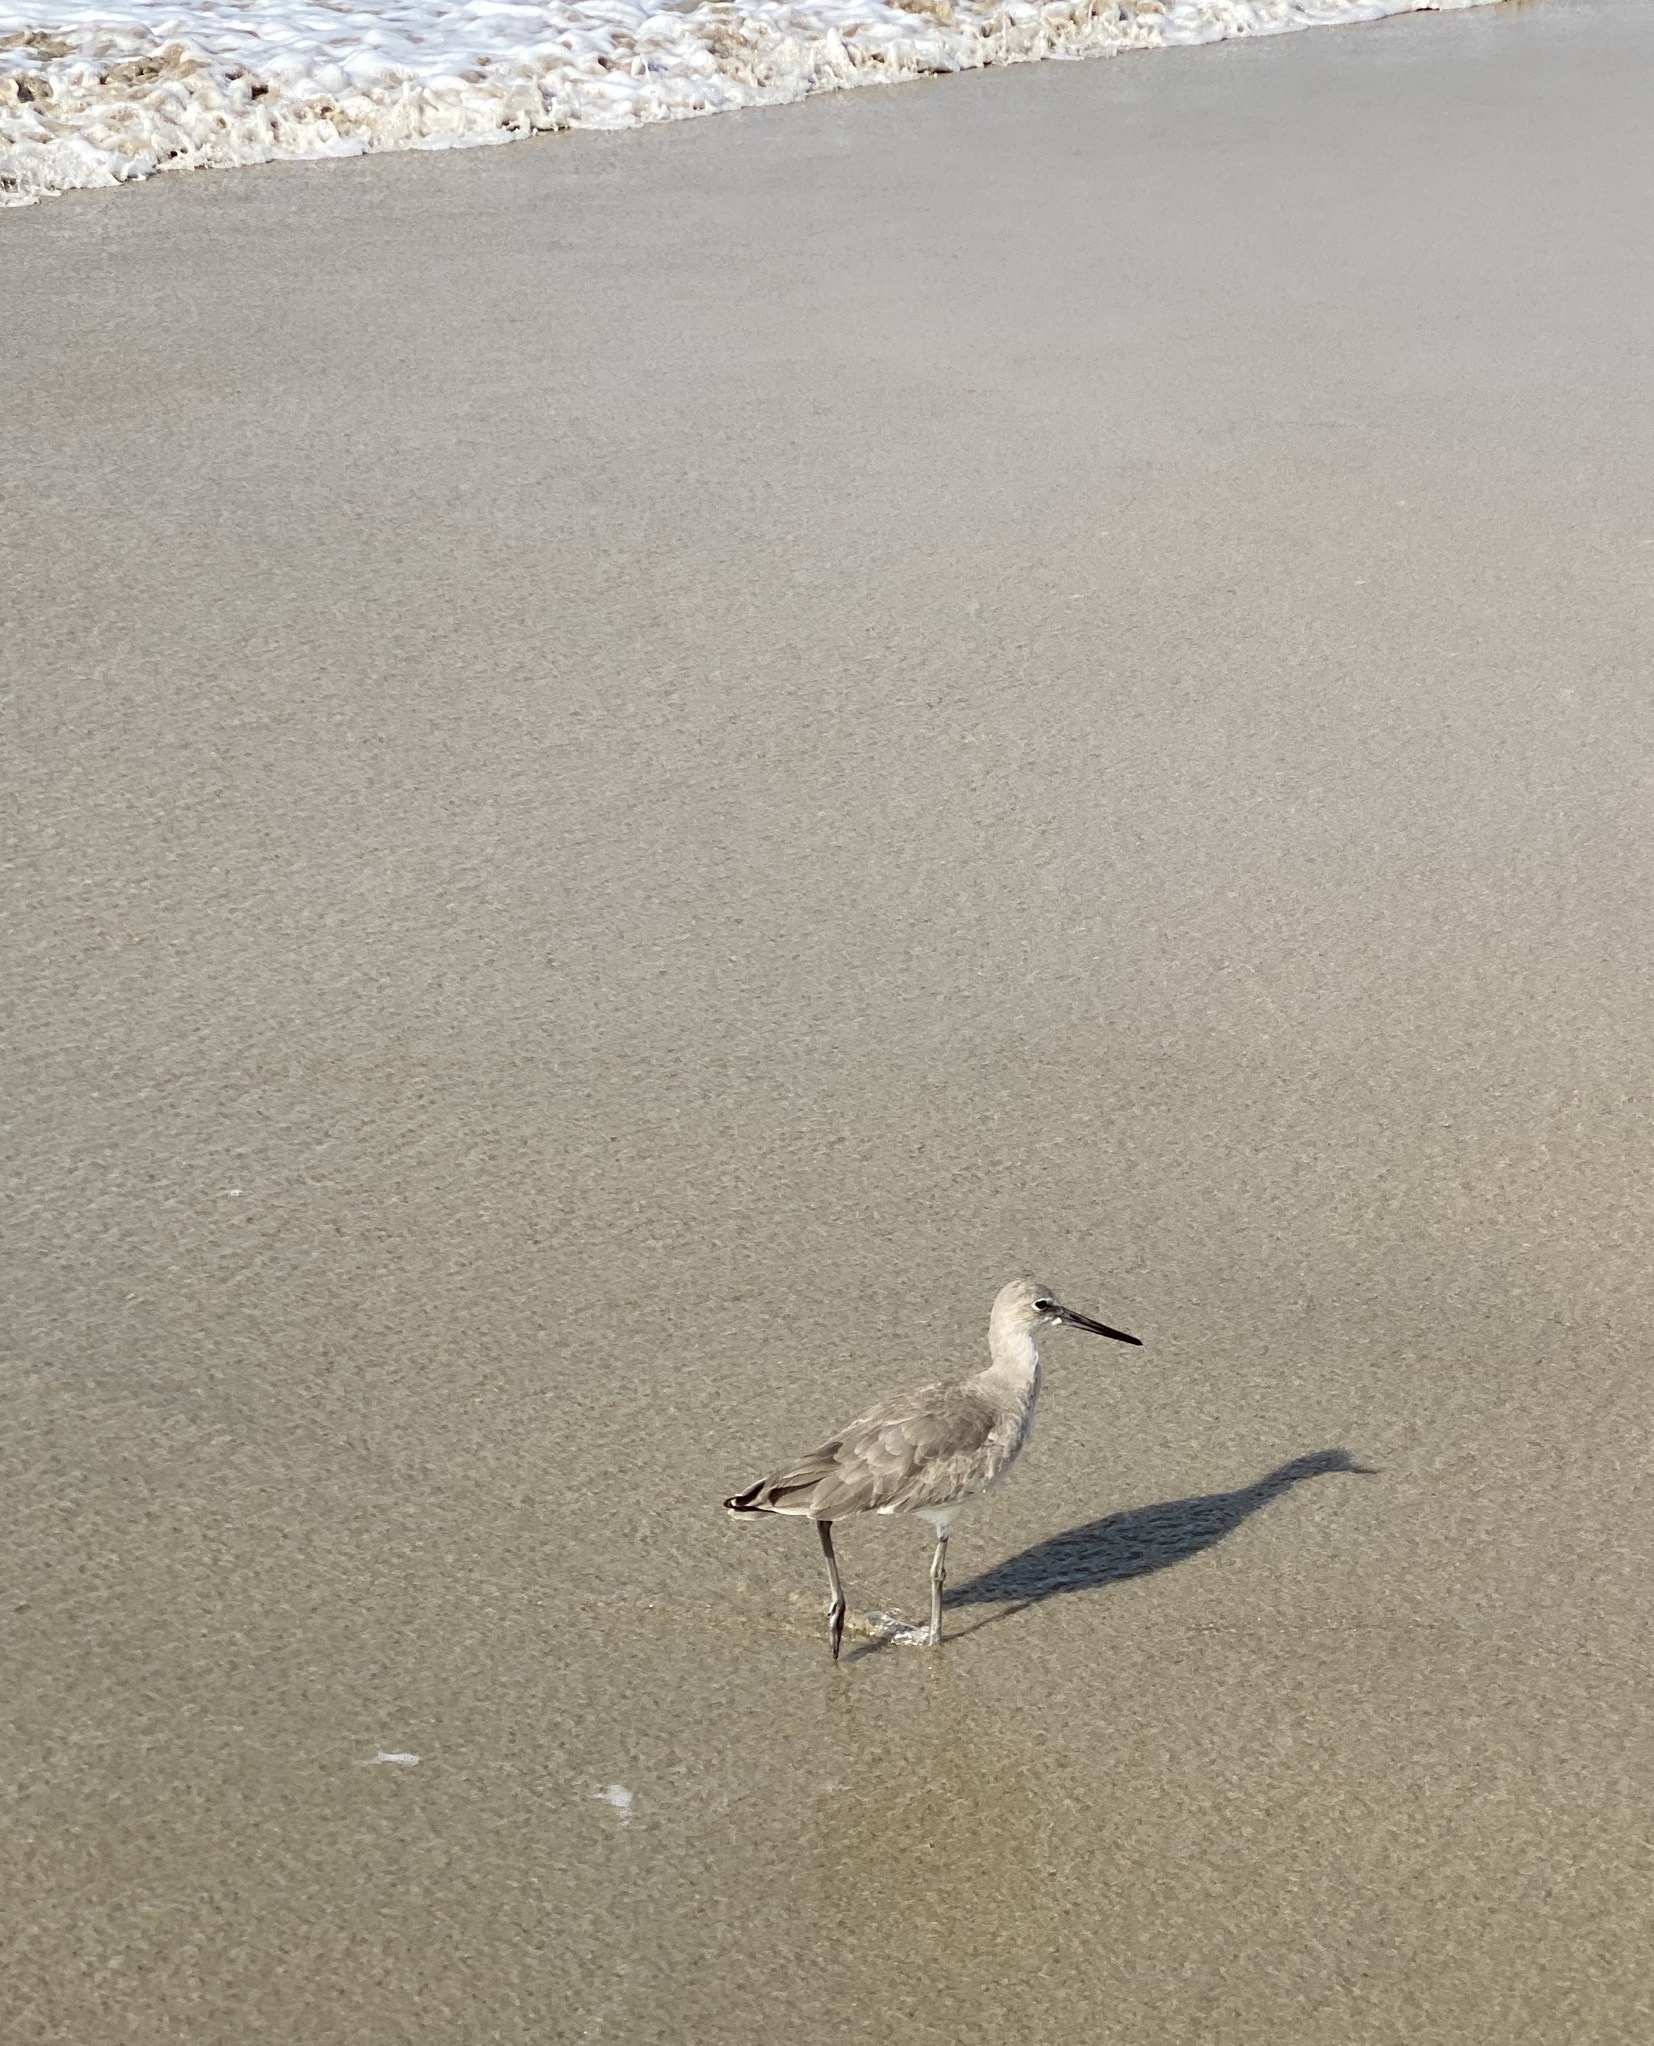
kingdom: Animalia
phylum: Chordata
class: Aves
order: Charadriiformes
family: Scolopacidae
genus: Tringa
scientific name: Tringa semipalmata
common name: Willet
